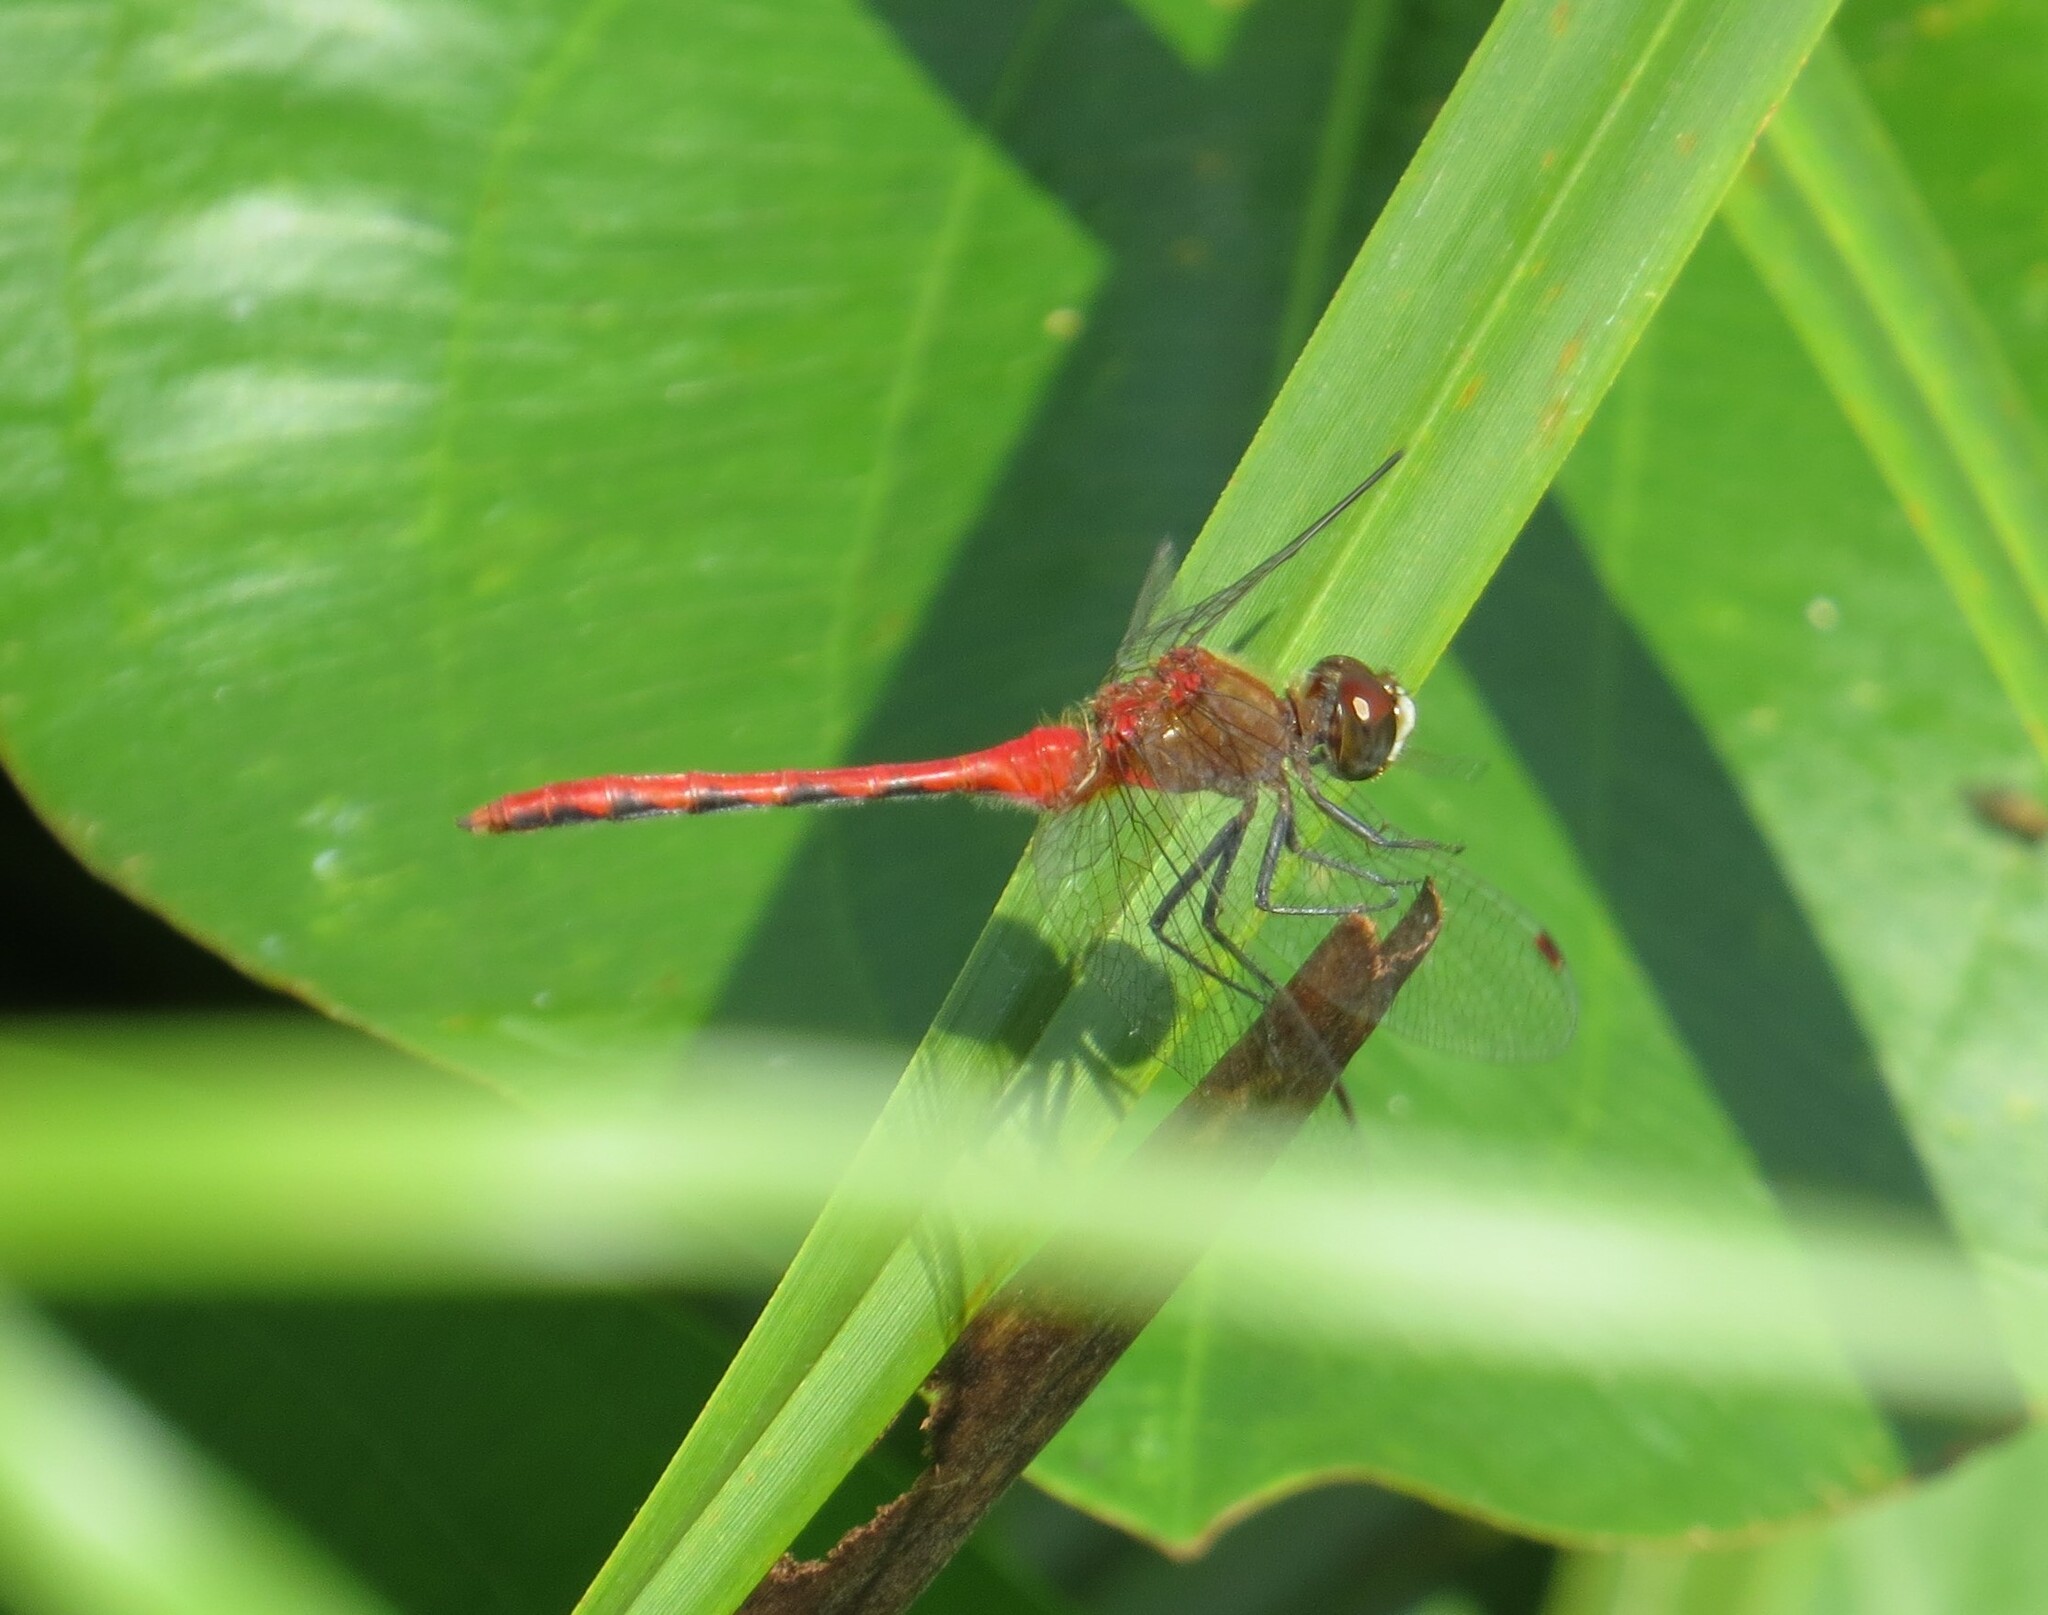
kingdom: Animalia
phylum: Arthropoda
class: Insecta
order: Odonata
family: Libellulidae
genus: Sympetrum
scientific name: Sympetrum obtrusum
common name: White-faced meadowhawk
